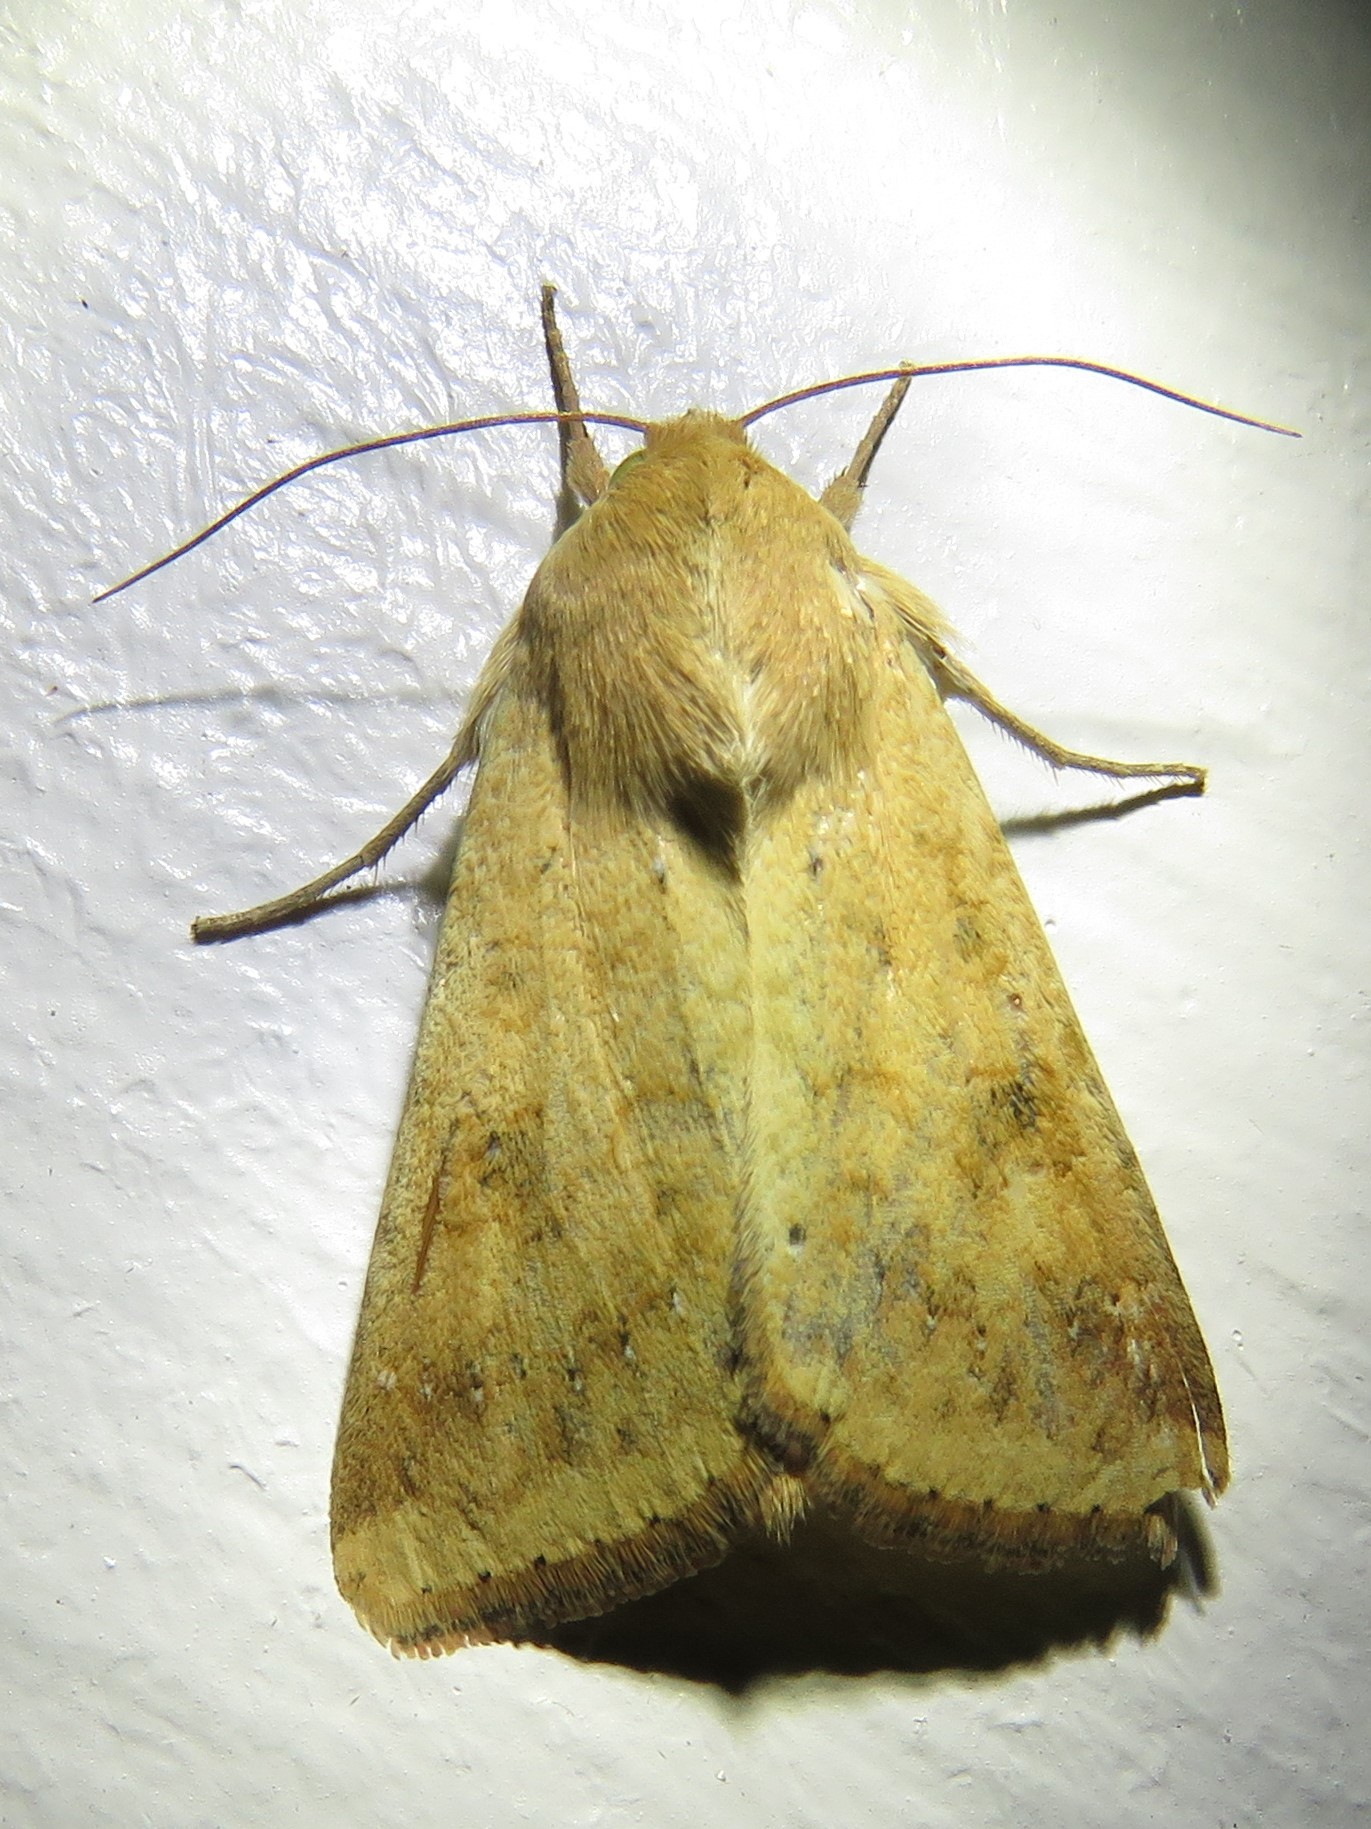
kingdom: Animalia
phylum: Arthropoda
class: Insecta
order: Lepidoptera
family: Noctuidae
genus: Helicoverpa
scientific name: Helicoverpa zea
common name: Bollworm
